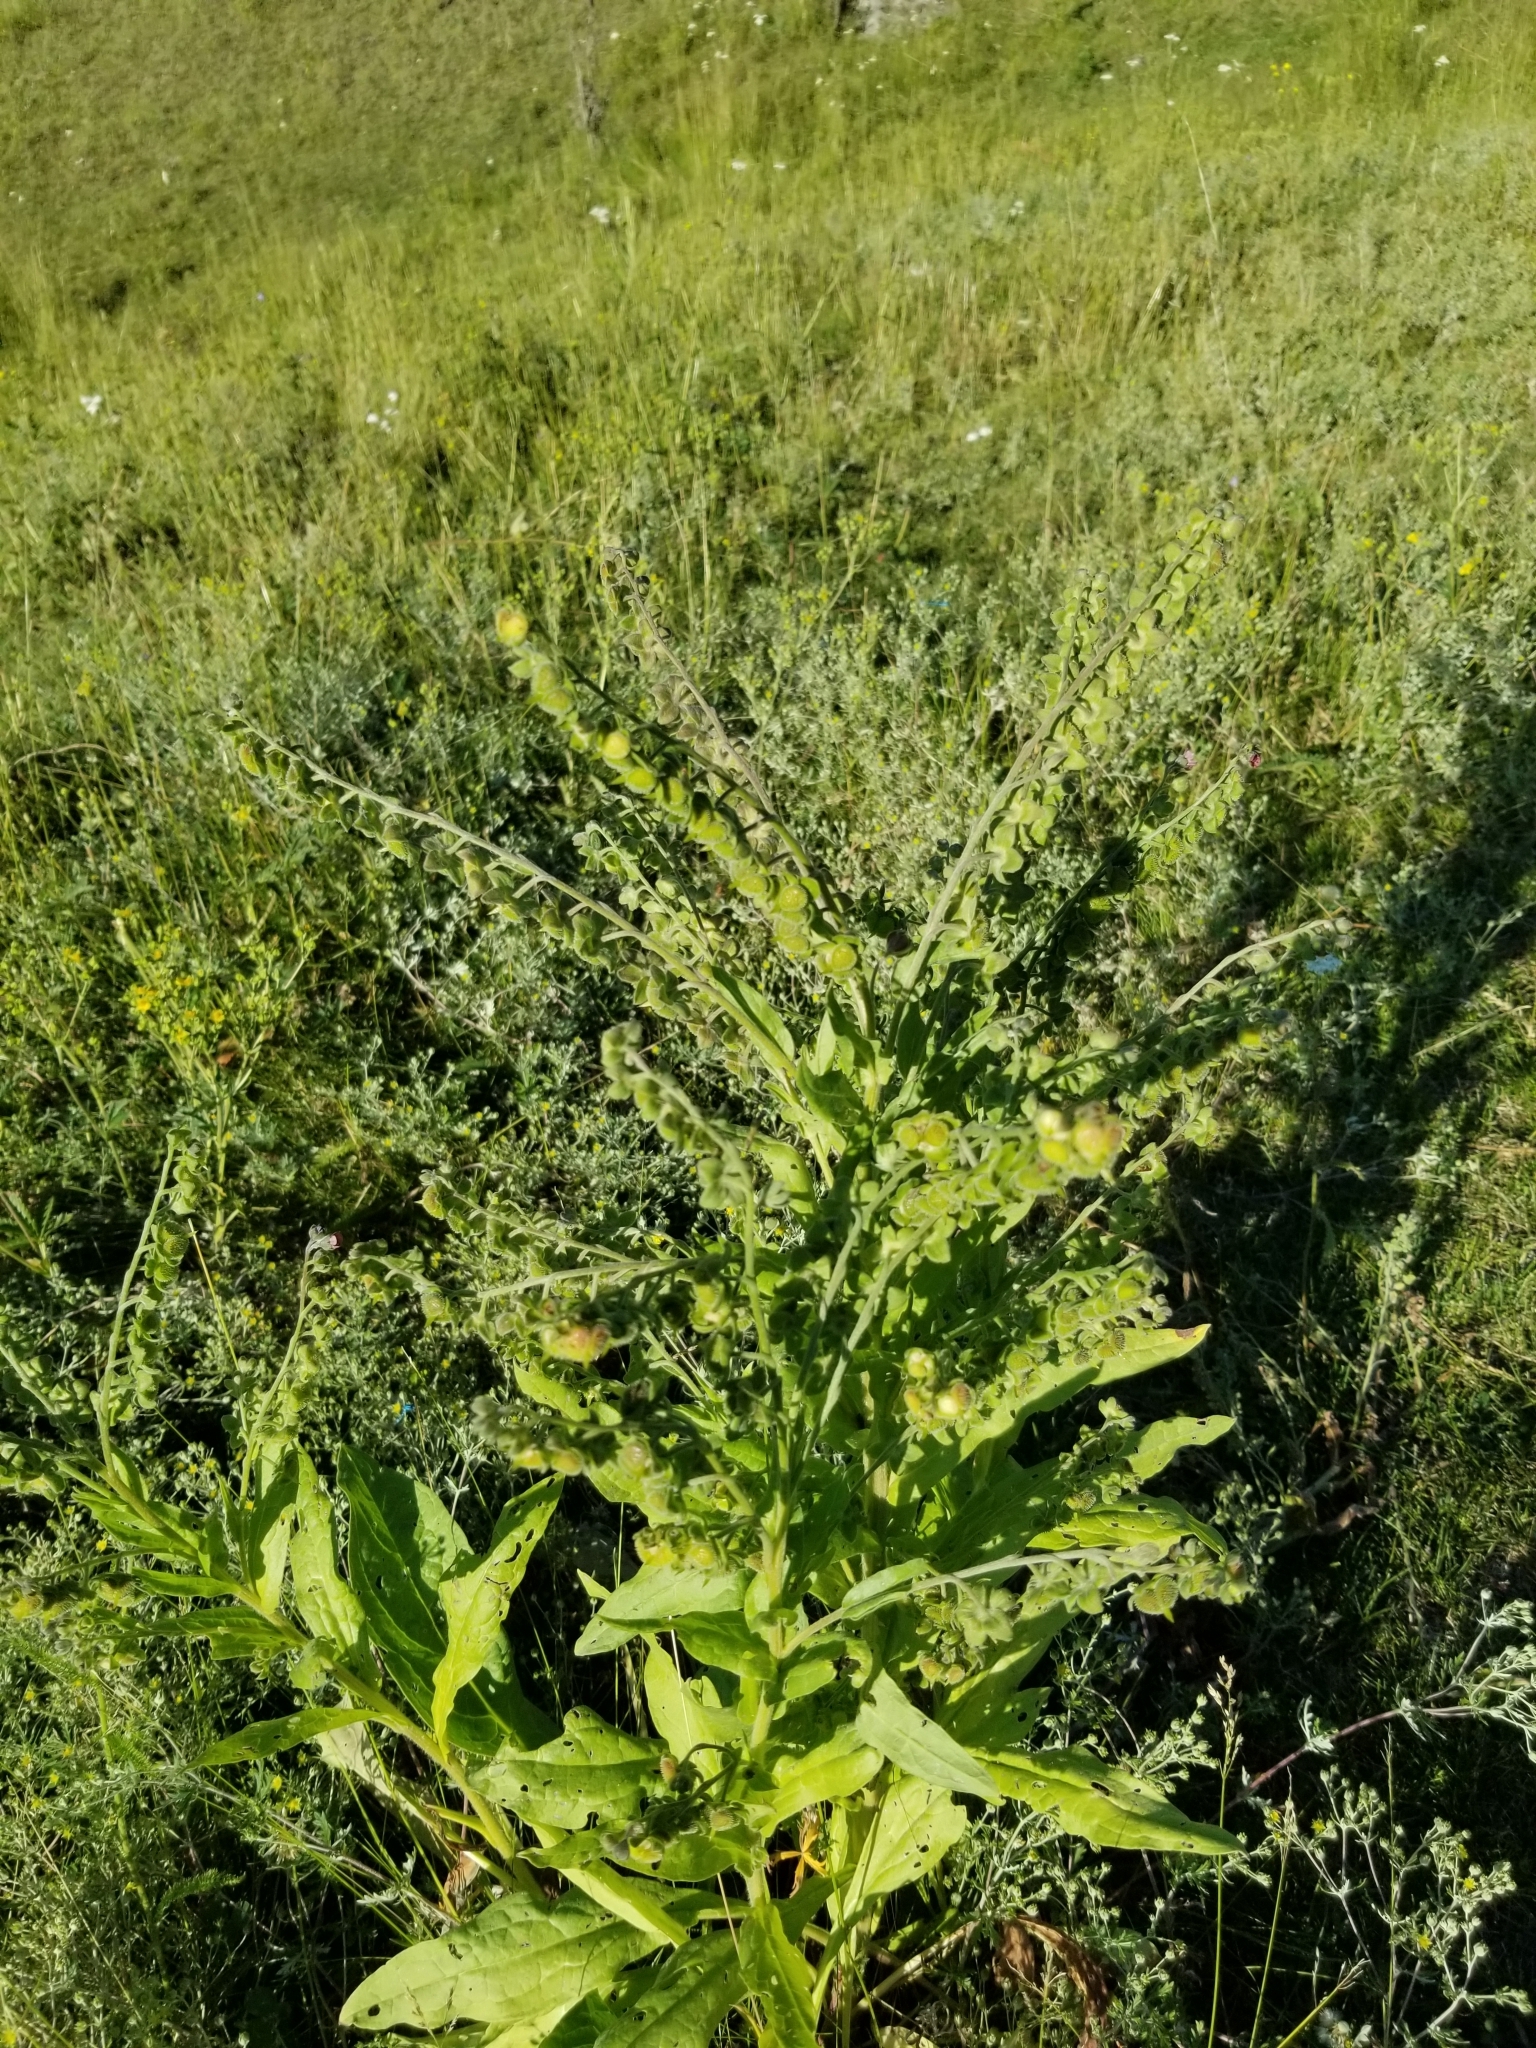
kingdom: Plantae
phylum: Tracheophyta
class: Magnoliopsida
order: Boraginales
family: Boraginaceae
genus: Cynoglossum
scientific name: Cynoglossum officinale
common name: Hound's-tongue
